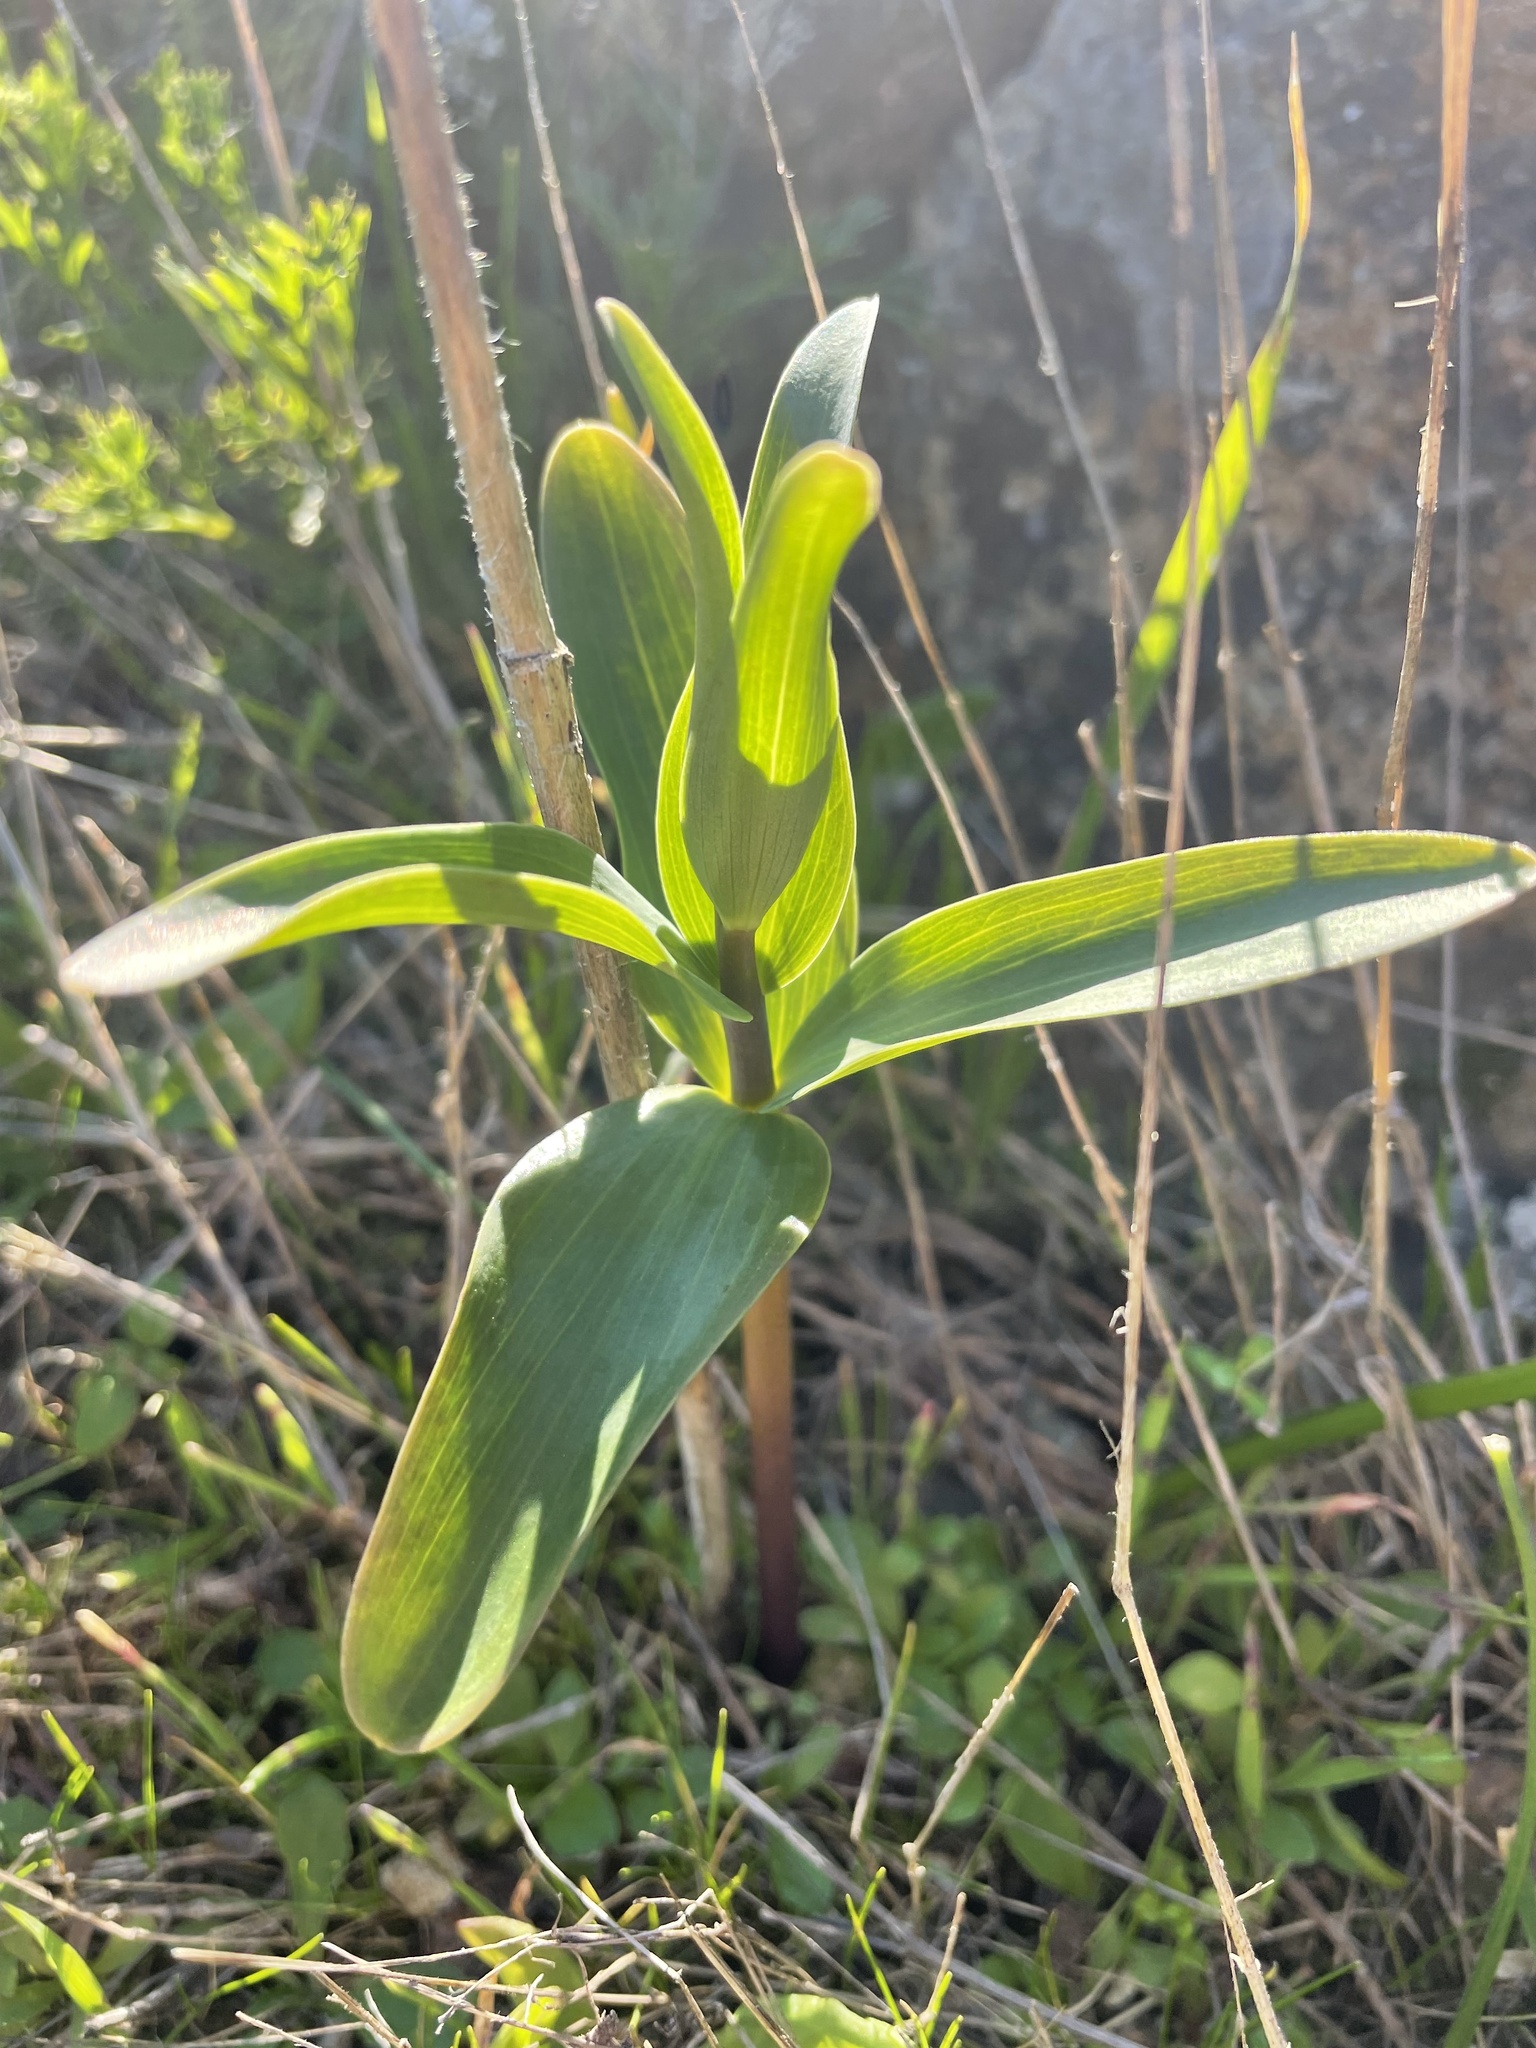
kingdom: Plantae
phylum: Tracheophyta
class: Liliopsida
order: Liliales
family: Liliaceae
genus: Fritillaria
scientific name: Fritillaria affinis
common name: Ojai fritillary
